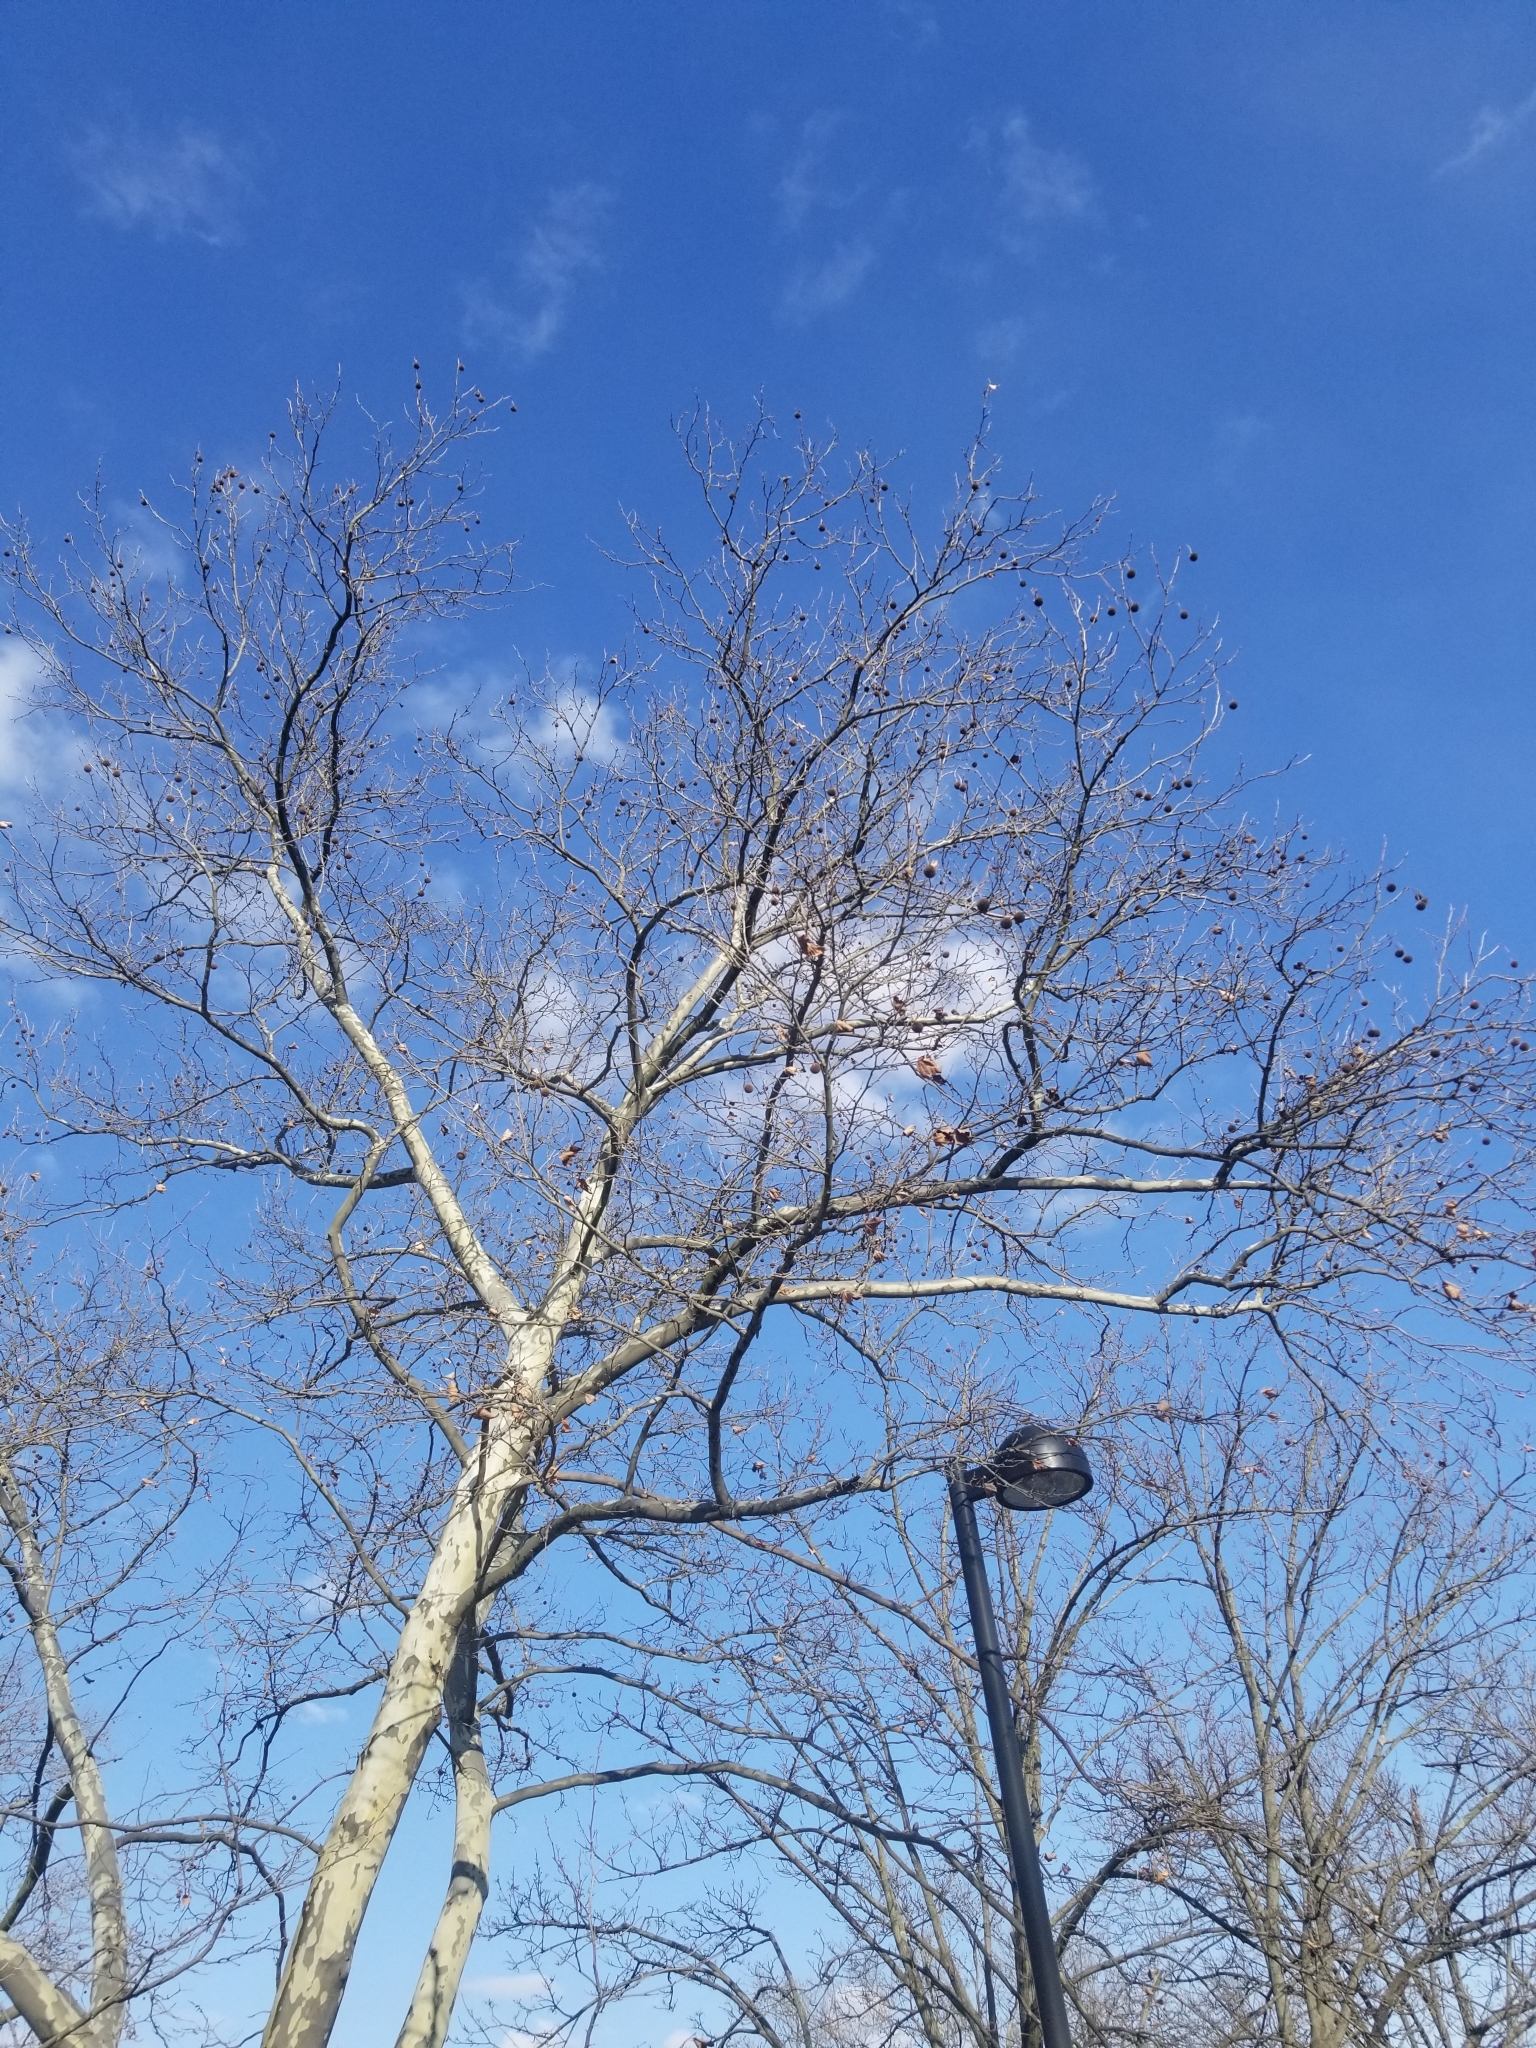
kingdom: Plantae
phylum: Tracheophyta
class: Magnoliopsida
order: Proteales
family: Platanaceae
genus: Platanus
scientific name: Platanus occidentalis
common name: American sycamore
